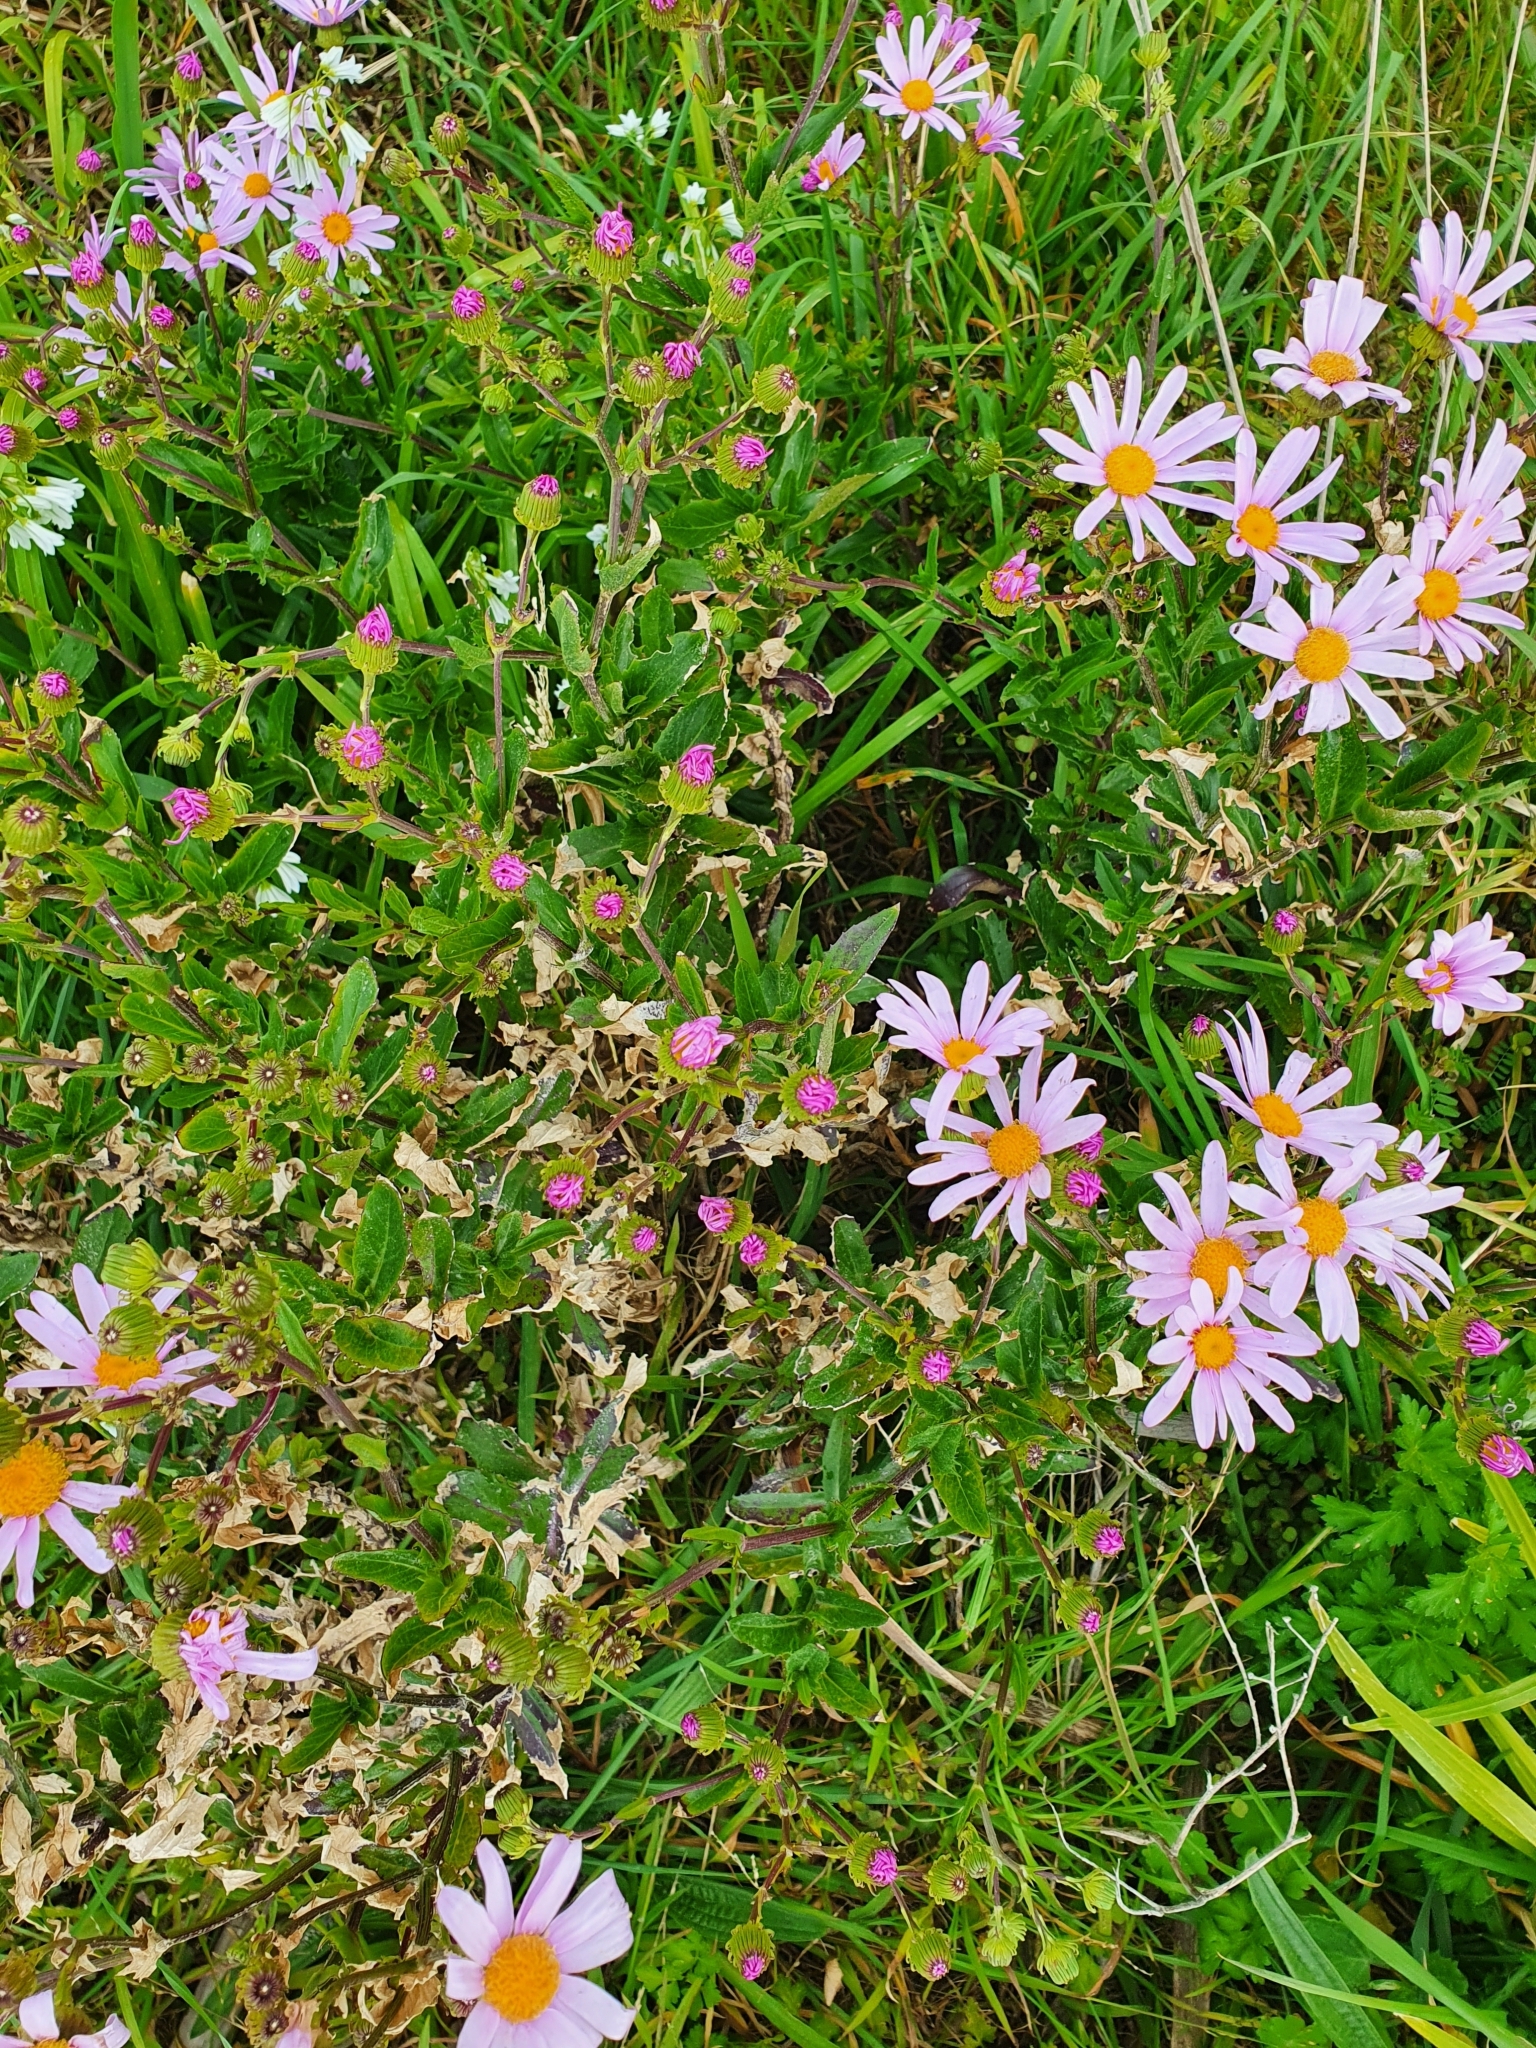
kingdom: Plantae
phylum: Tracheophyta
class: Magnoliopsida
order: Asterales
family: Asteraceae
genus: Senecio
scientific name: Senecio glastifolius
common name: Woad-leaved ragwort
